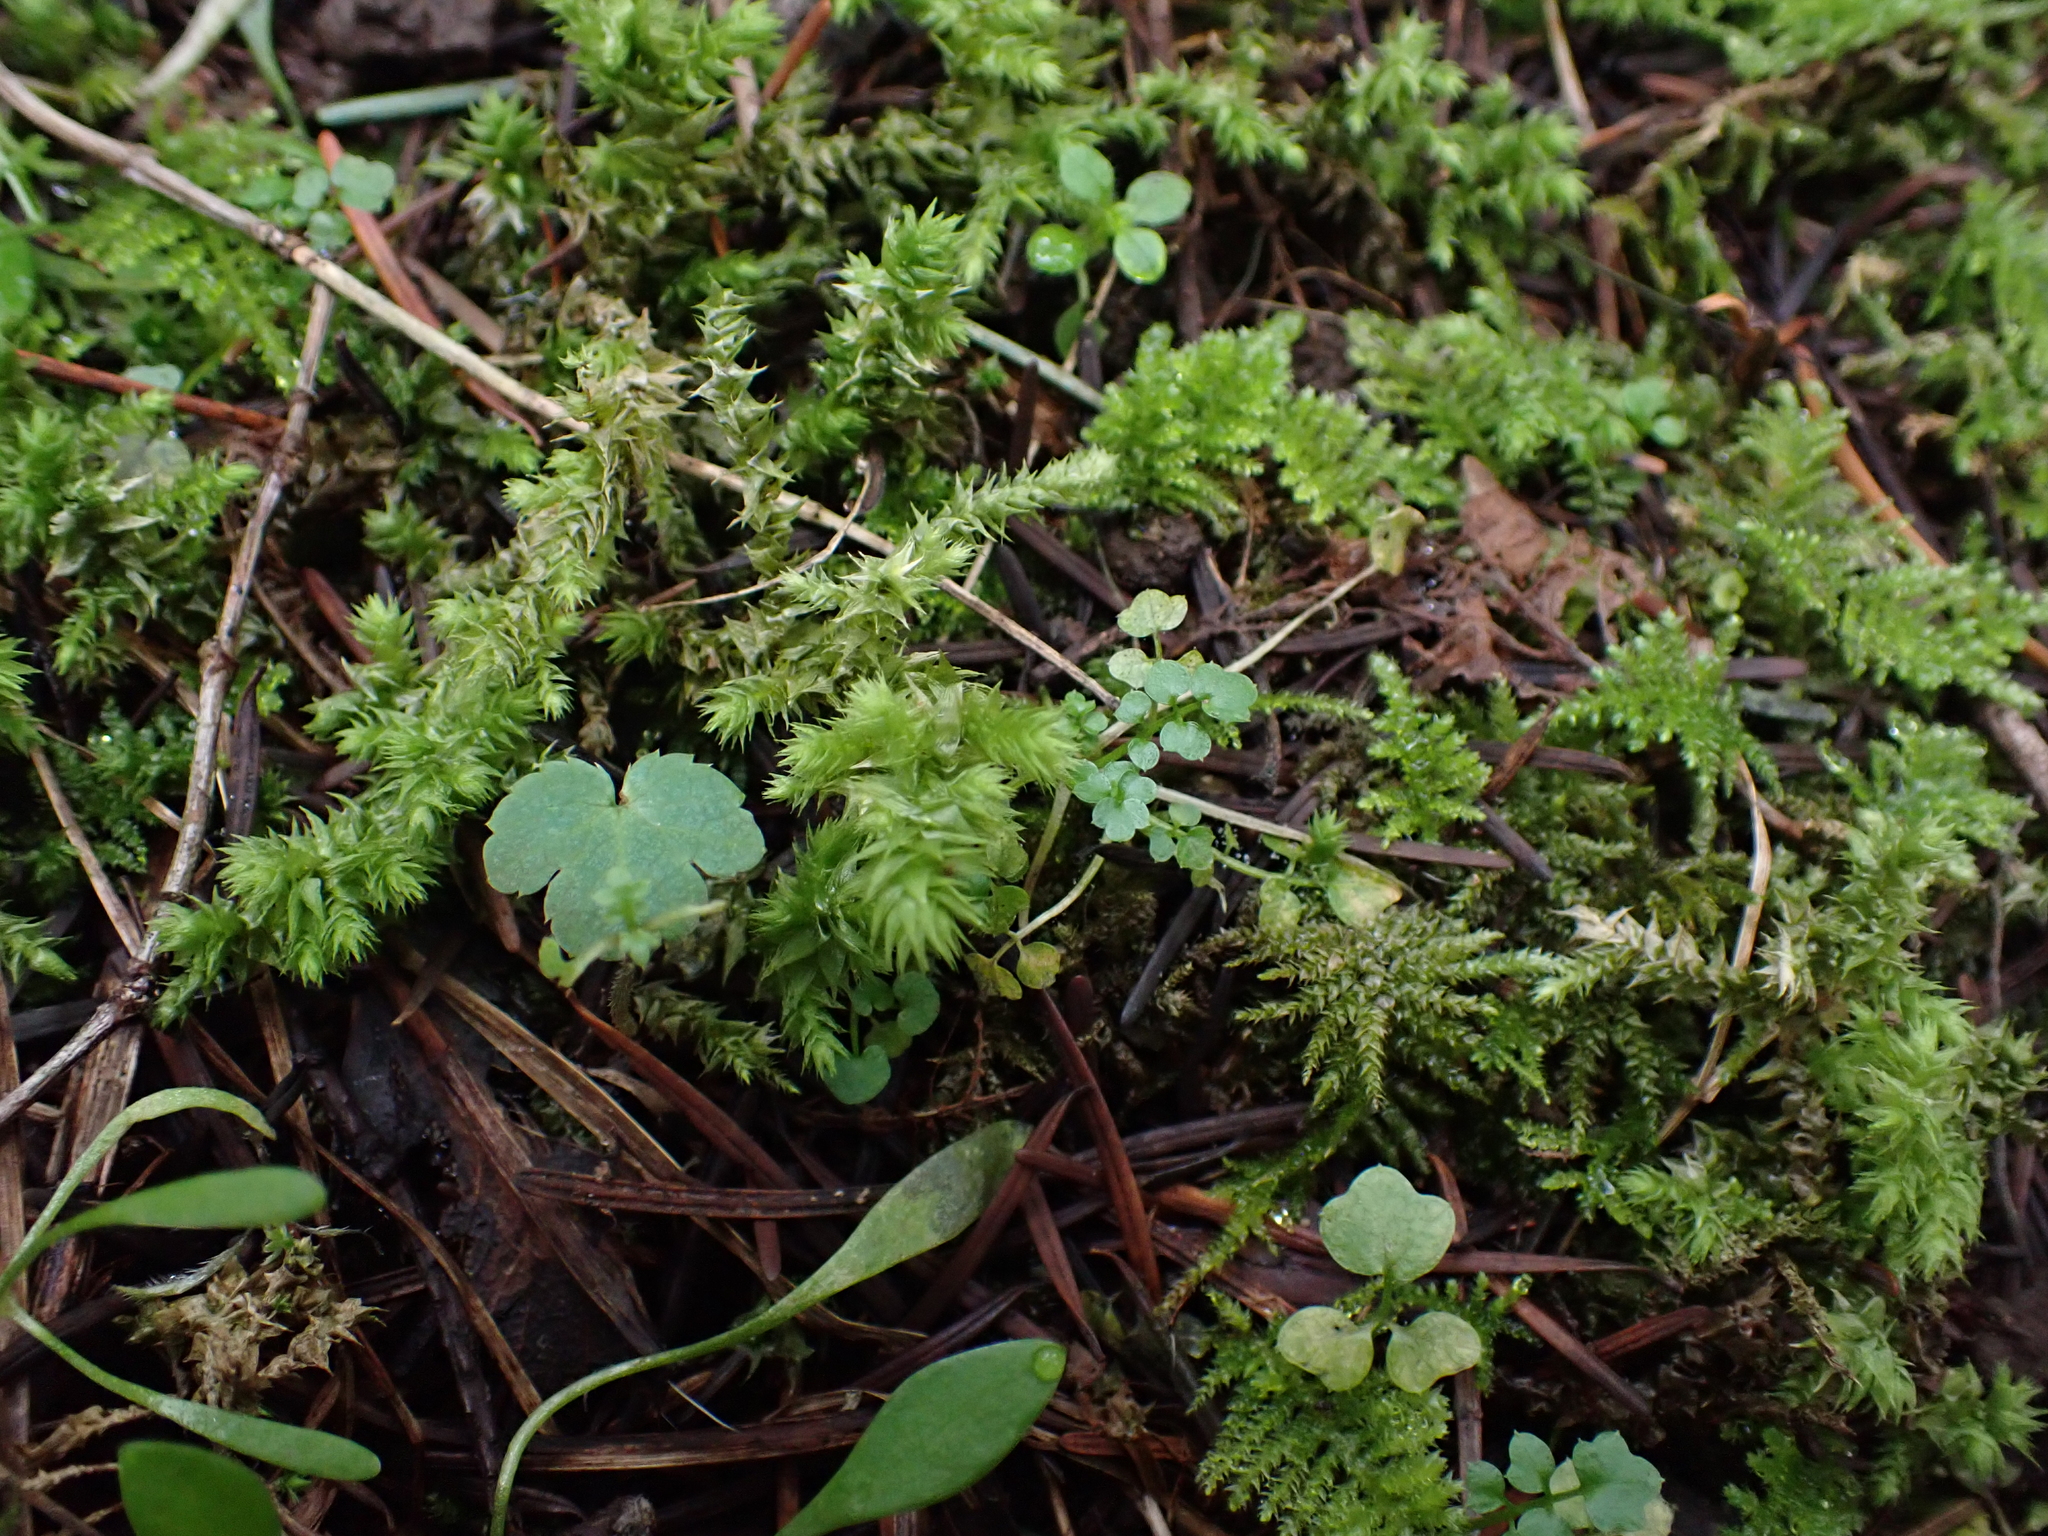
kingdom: Plantae
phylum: Bryophyta
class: Bryopsida
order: Hypnales
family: Hylocomiaceae
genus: Hylocomiadelphus
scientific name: Hylocomiadelphus triquetrus
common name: Rough goose neck moss
